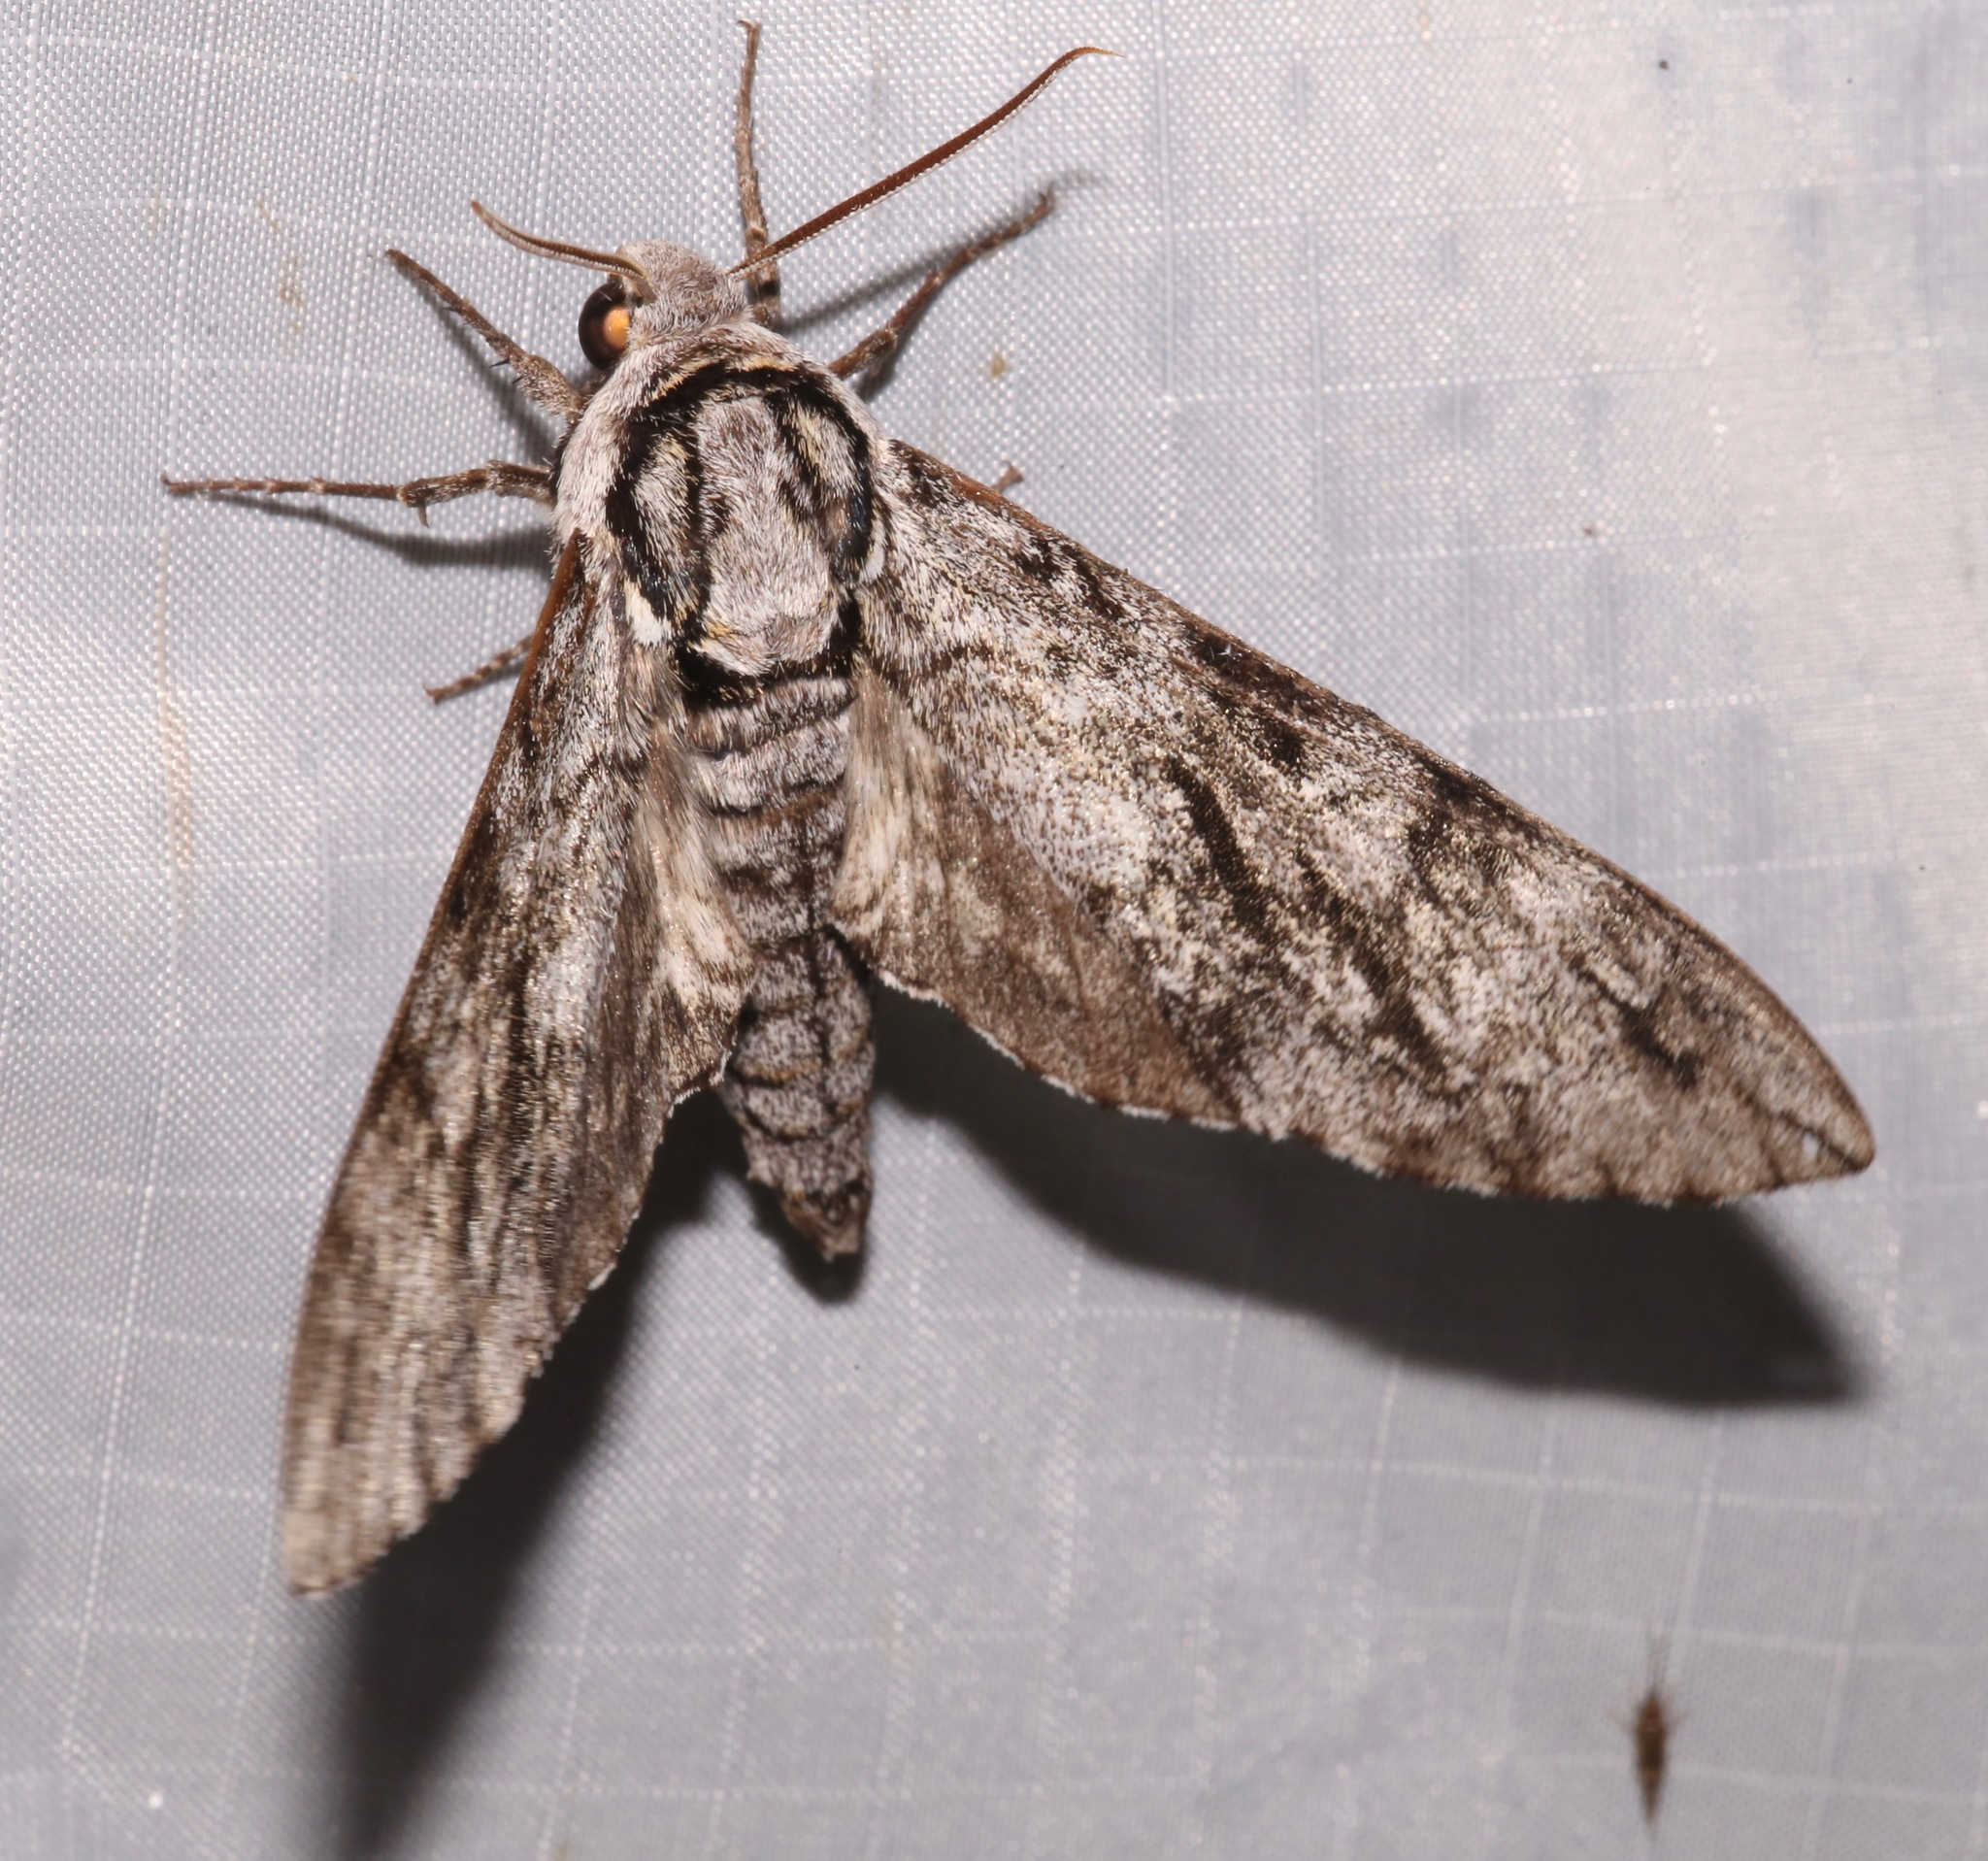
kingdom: Animalia
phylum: Arthropoda
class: Insecta
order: Lepidoptera
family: Sphingidae
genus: Ceratomia
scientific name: Ceratomia sonorensis
